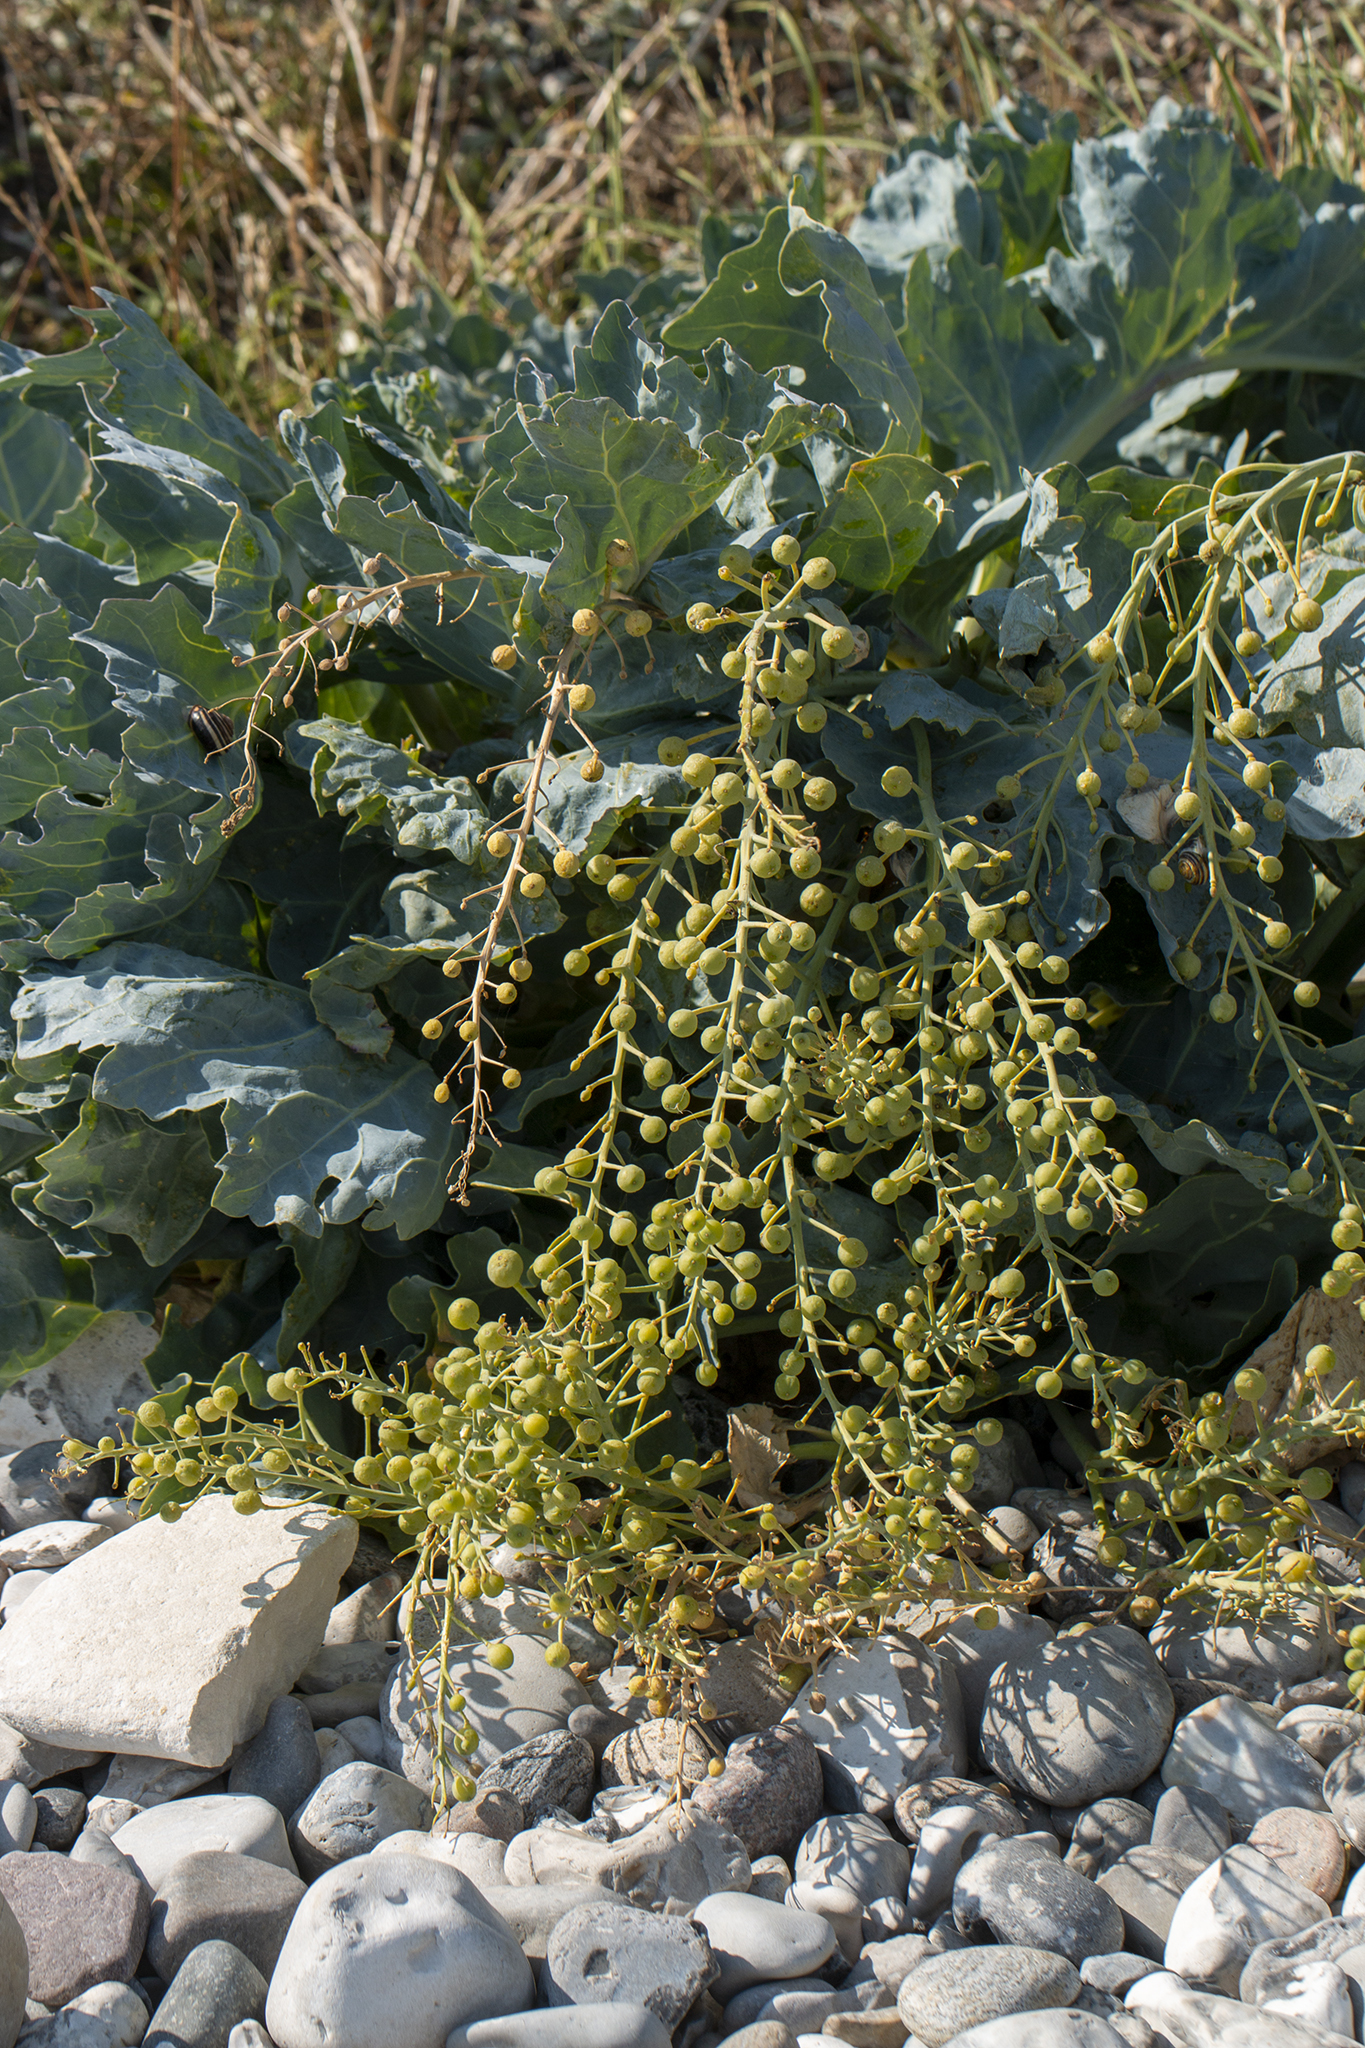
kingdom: Plantae
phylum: Tracheophyta
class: Magnoliopsida
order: Brassicales
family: Brassicaceae
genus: Crambe
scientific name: Crambe maritima
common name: Sea-kale
